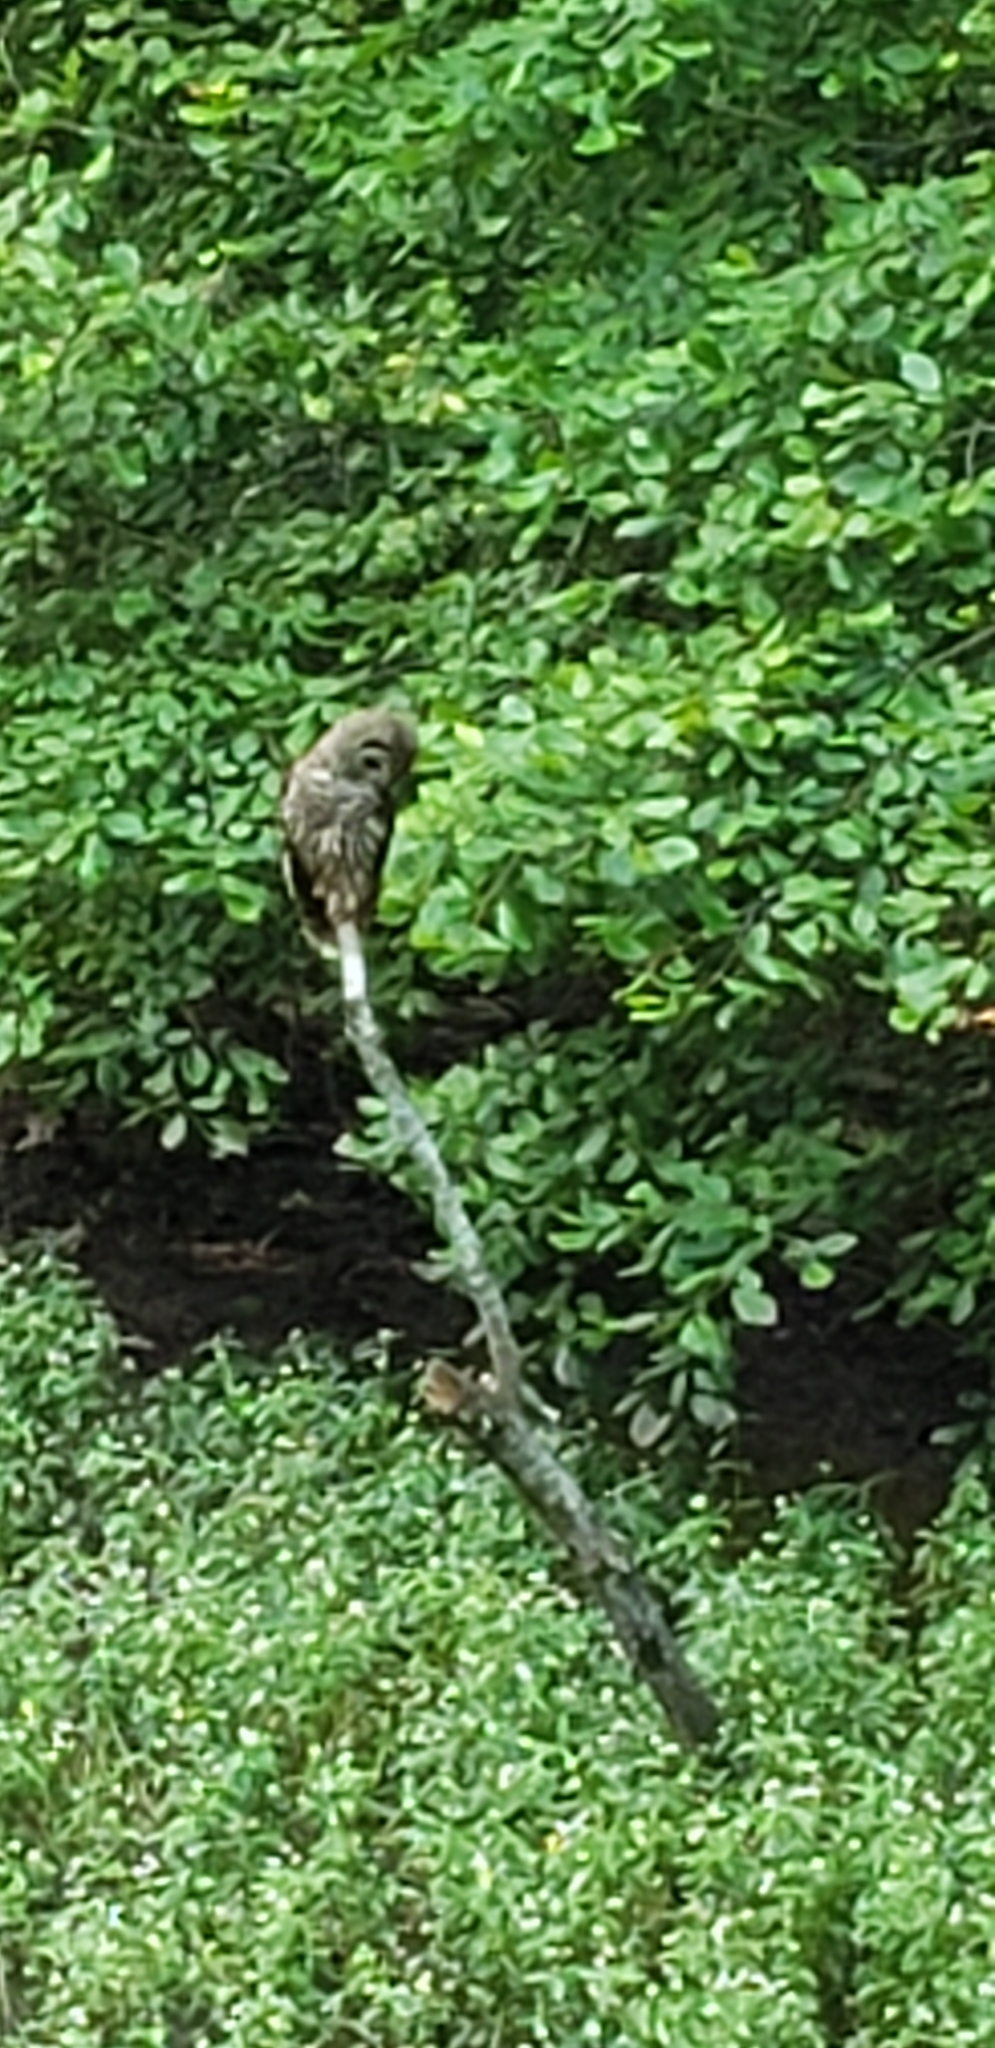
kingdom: Animalia
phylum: Chordata
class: Aves
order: Strigiformes
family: Strigidae
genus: Strix
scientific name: Strix varia
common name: Barred owl
